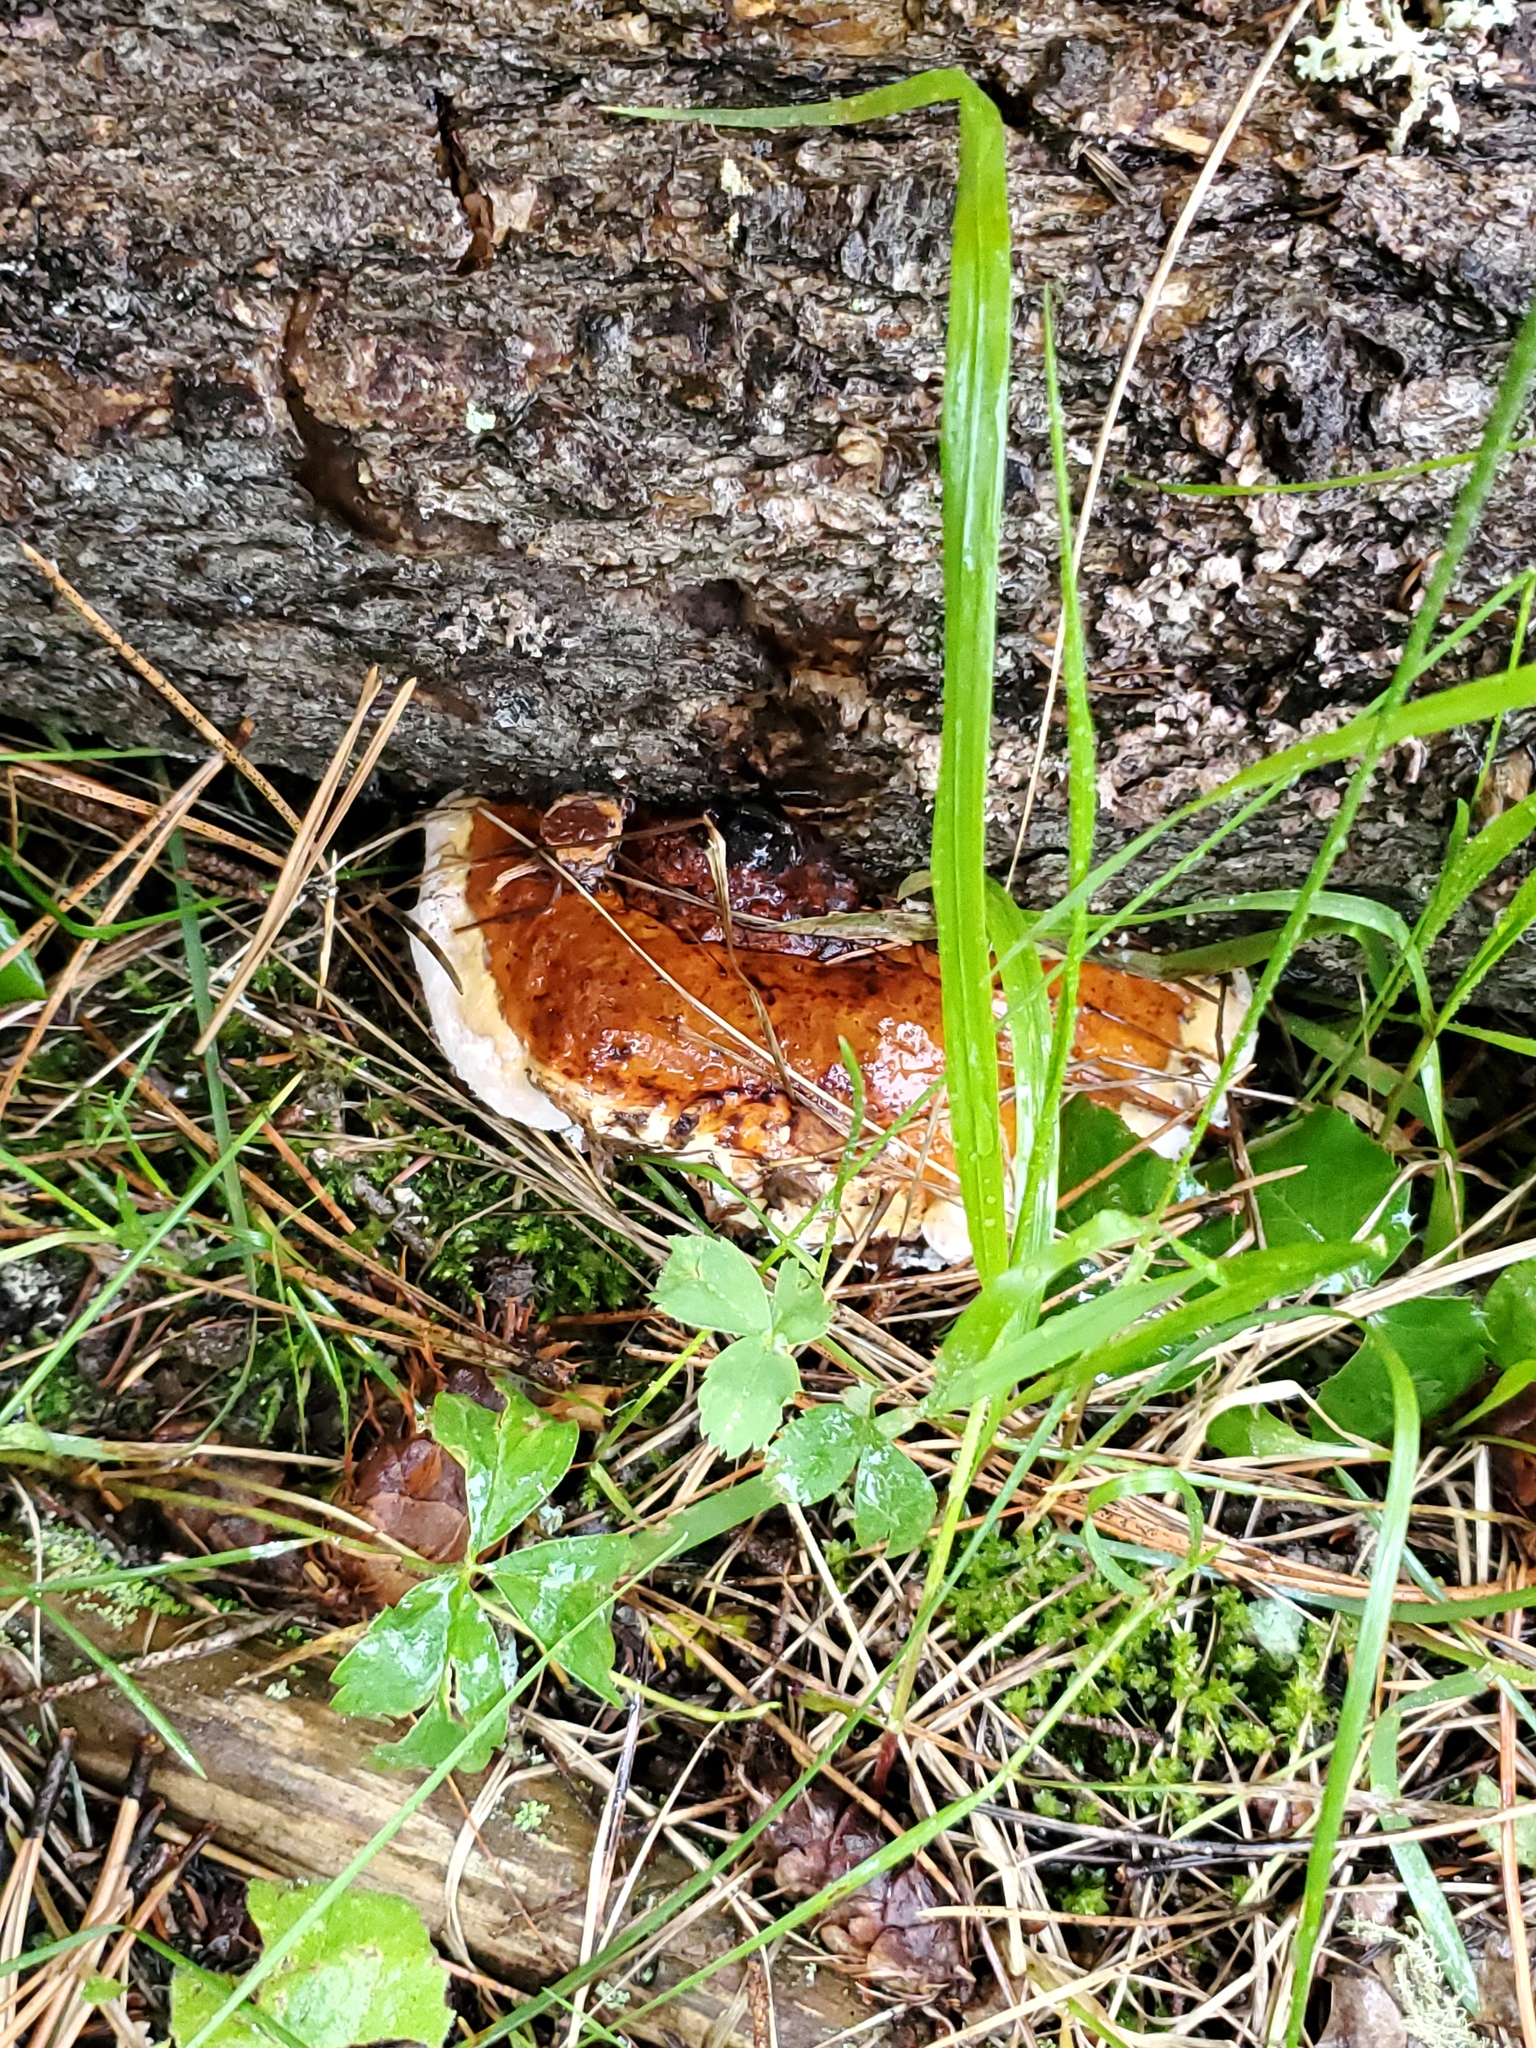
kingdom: Fungi
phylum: Basidiomycota
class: Agaricomycetes
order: Polyporales
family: Fomitopsidaceae
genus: Fomitopsis
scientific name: Fomitopsis mounceae
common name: Northern red belt
